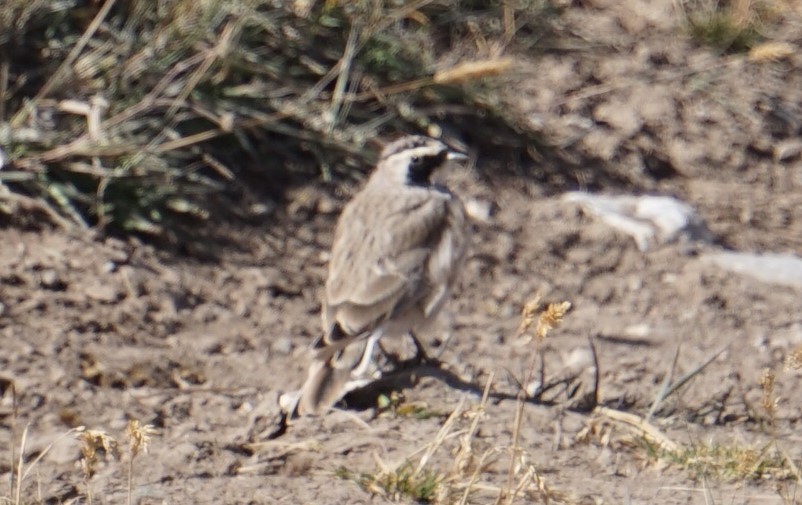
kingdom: Animalia
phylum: Chordata
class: Aves
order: Passeriformes
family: Alaudidae
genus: Eremophila
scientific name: Eremophila alpestris
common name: Horned lark
